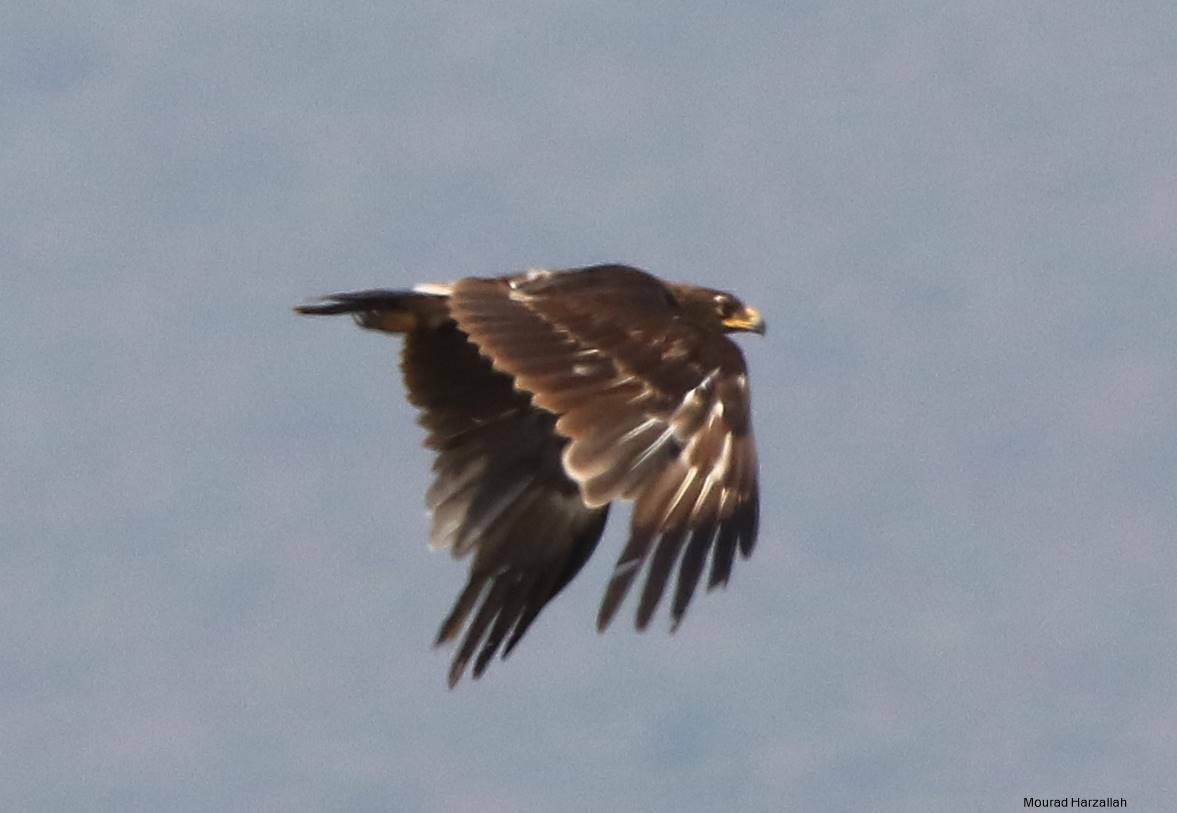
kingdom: Animalia
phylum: Chordata
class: Aves
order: Accipitriformes
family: Accipitridae
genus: Aquila
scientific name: Aquila clanga
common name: Greater spotted eagle
